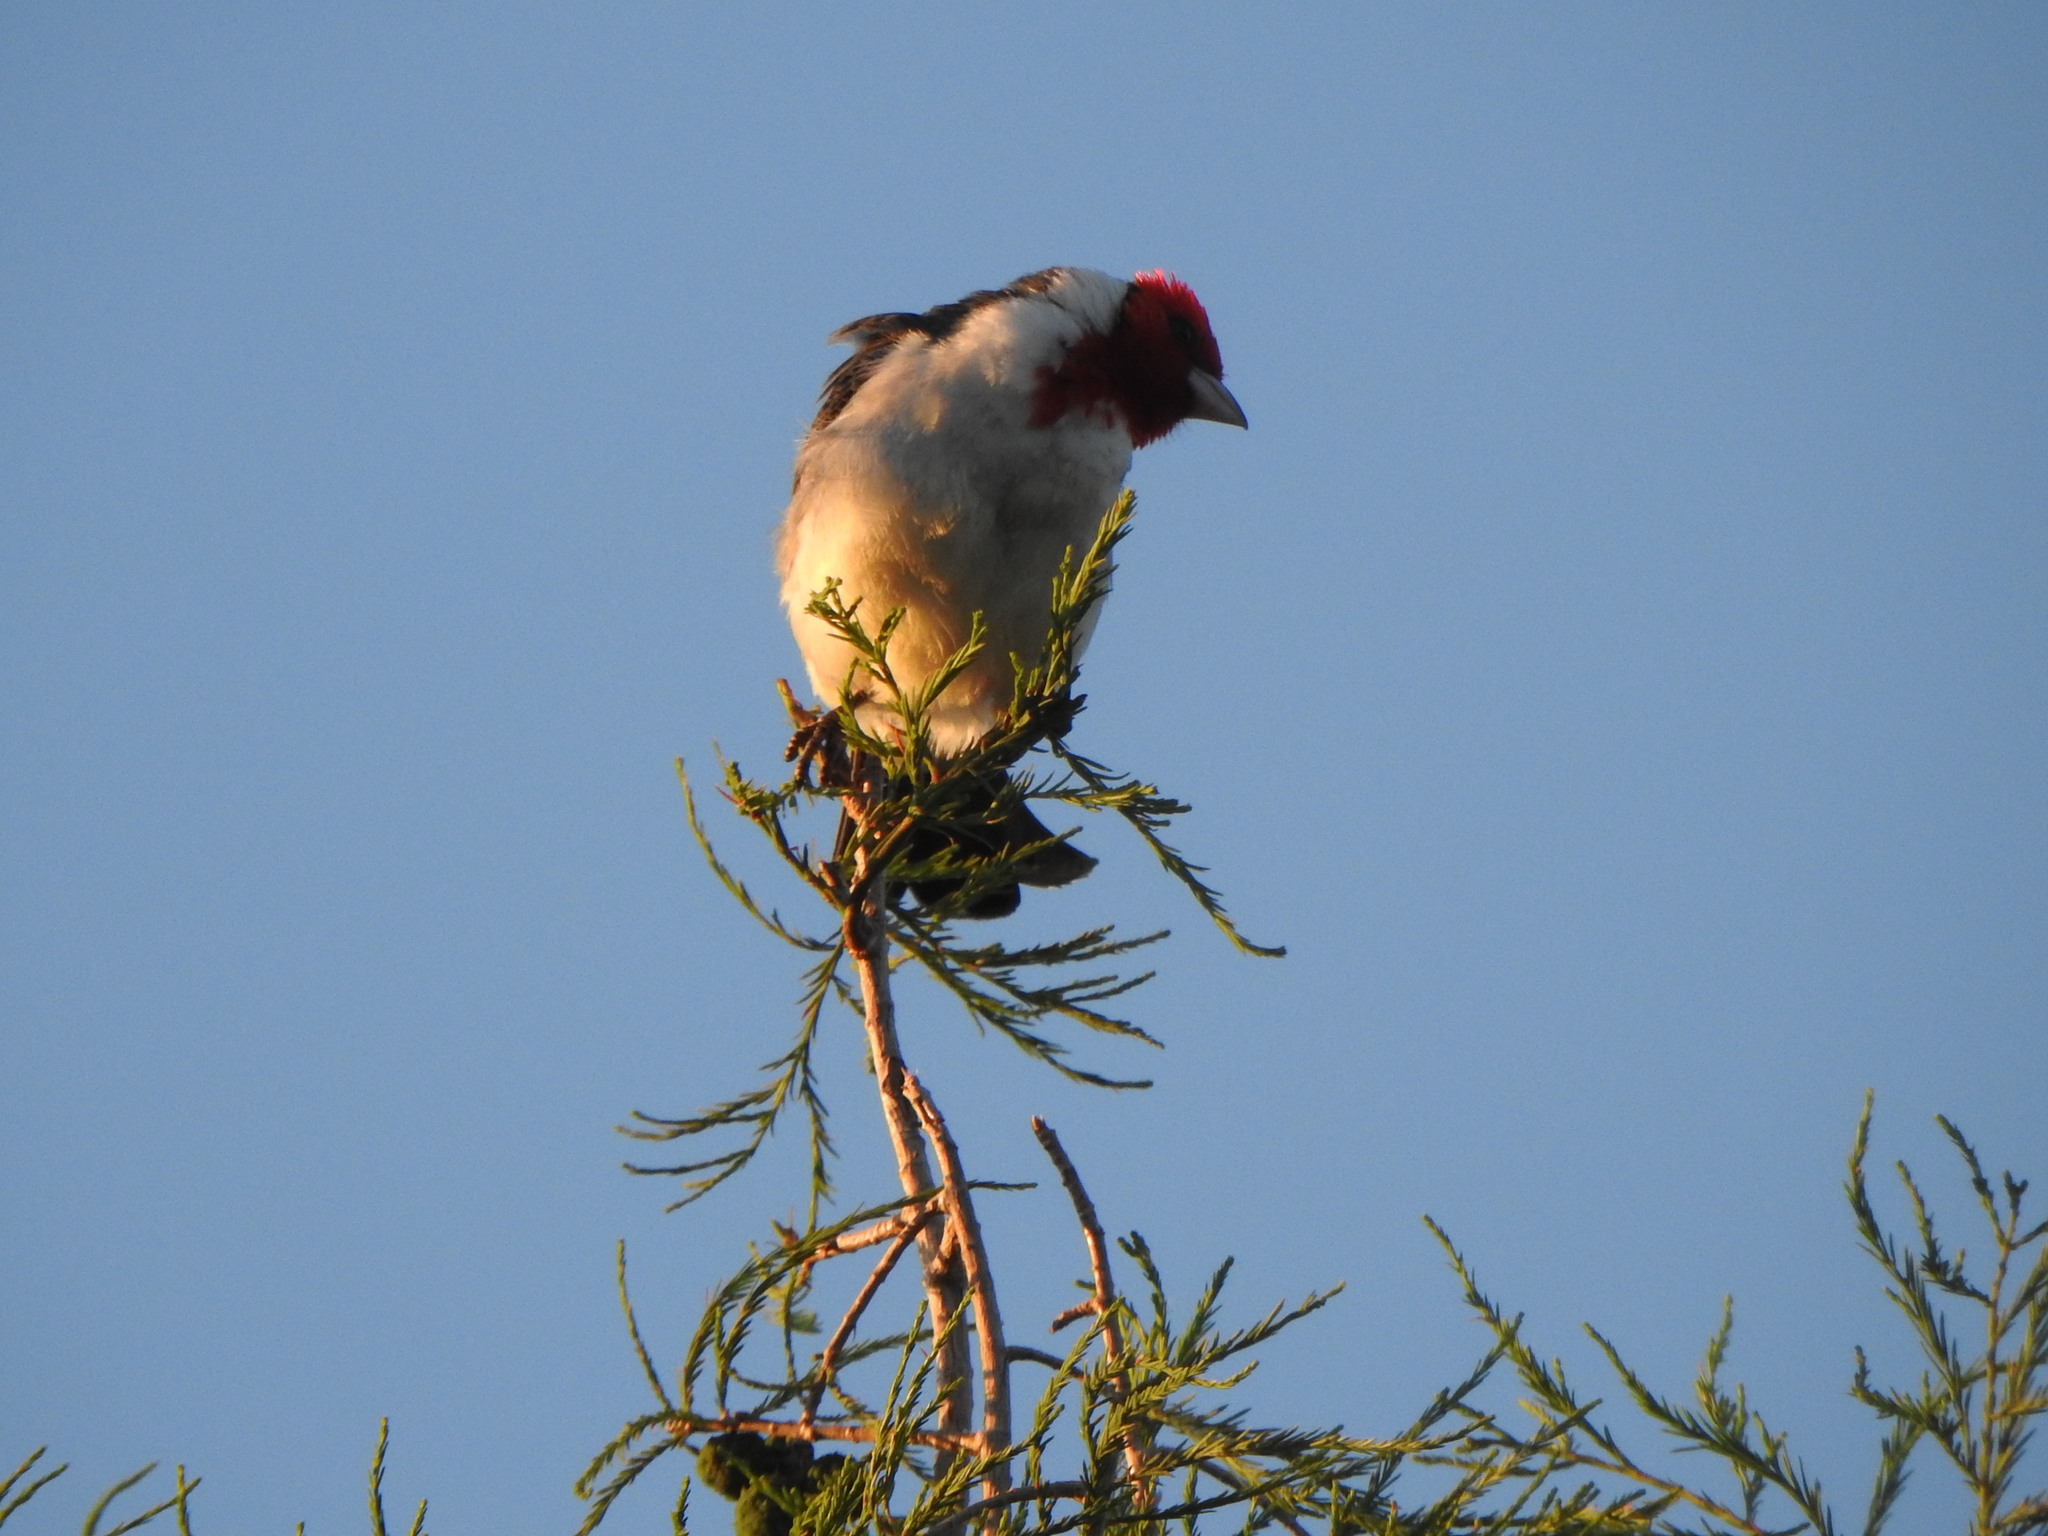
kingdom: Animalia
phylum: Chordata
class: Aves
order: Passeriformes
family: Thraupidae
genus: Paroaria
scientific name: Paroaria coronata
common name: Red-crested cardinal
